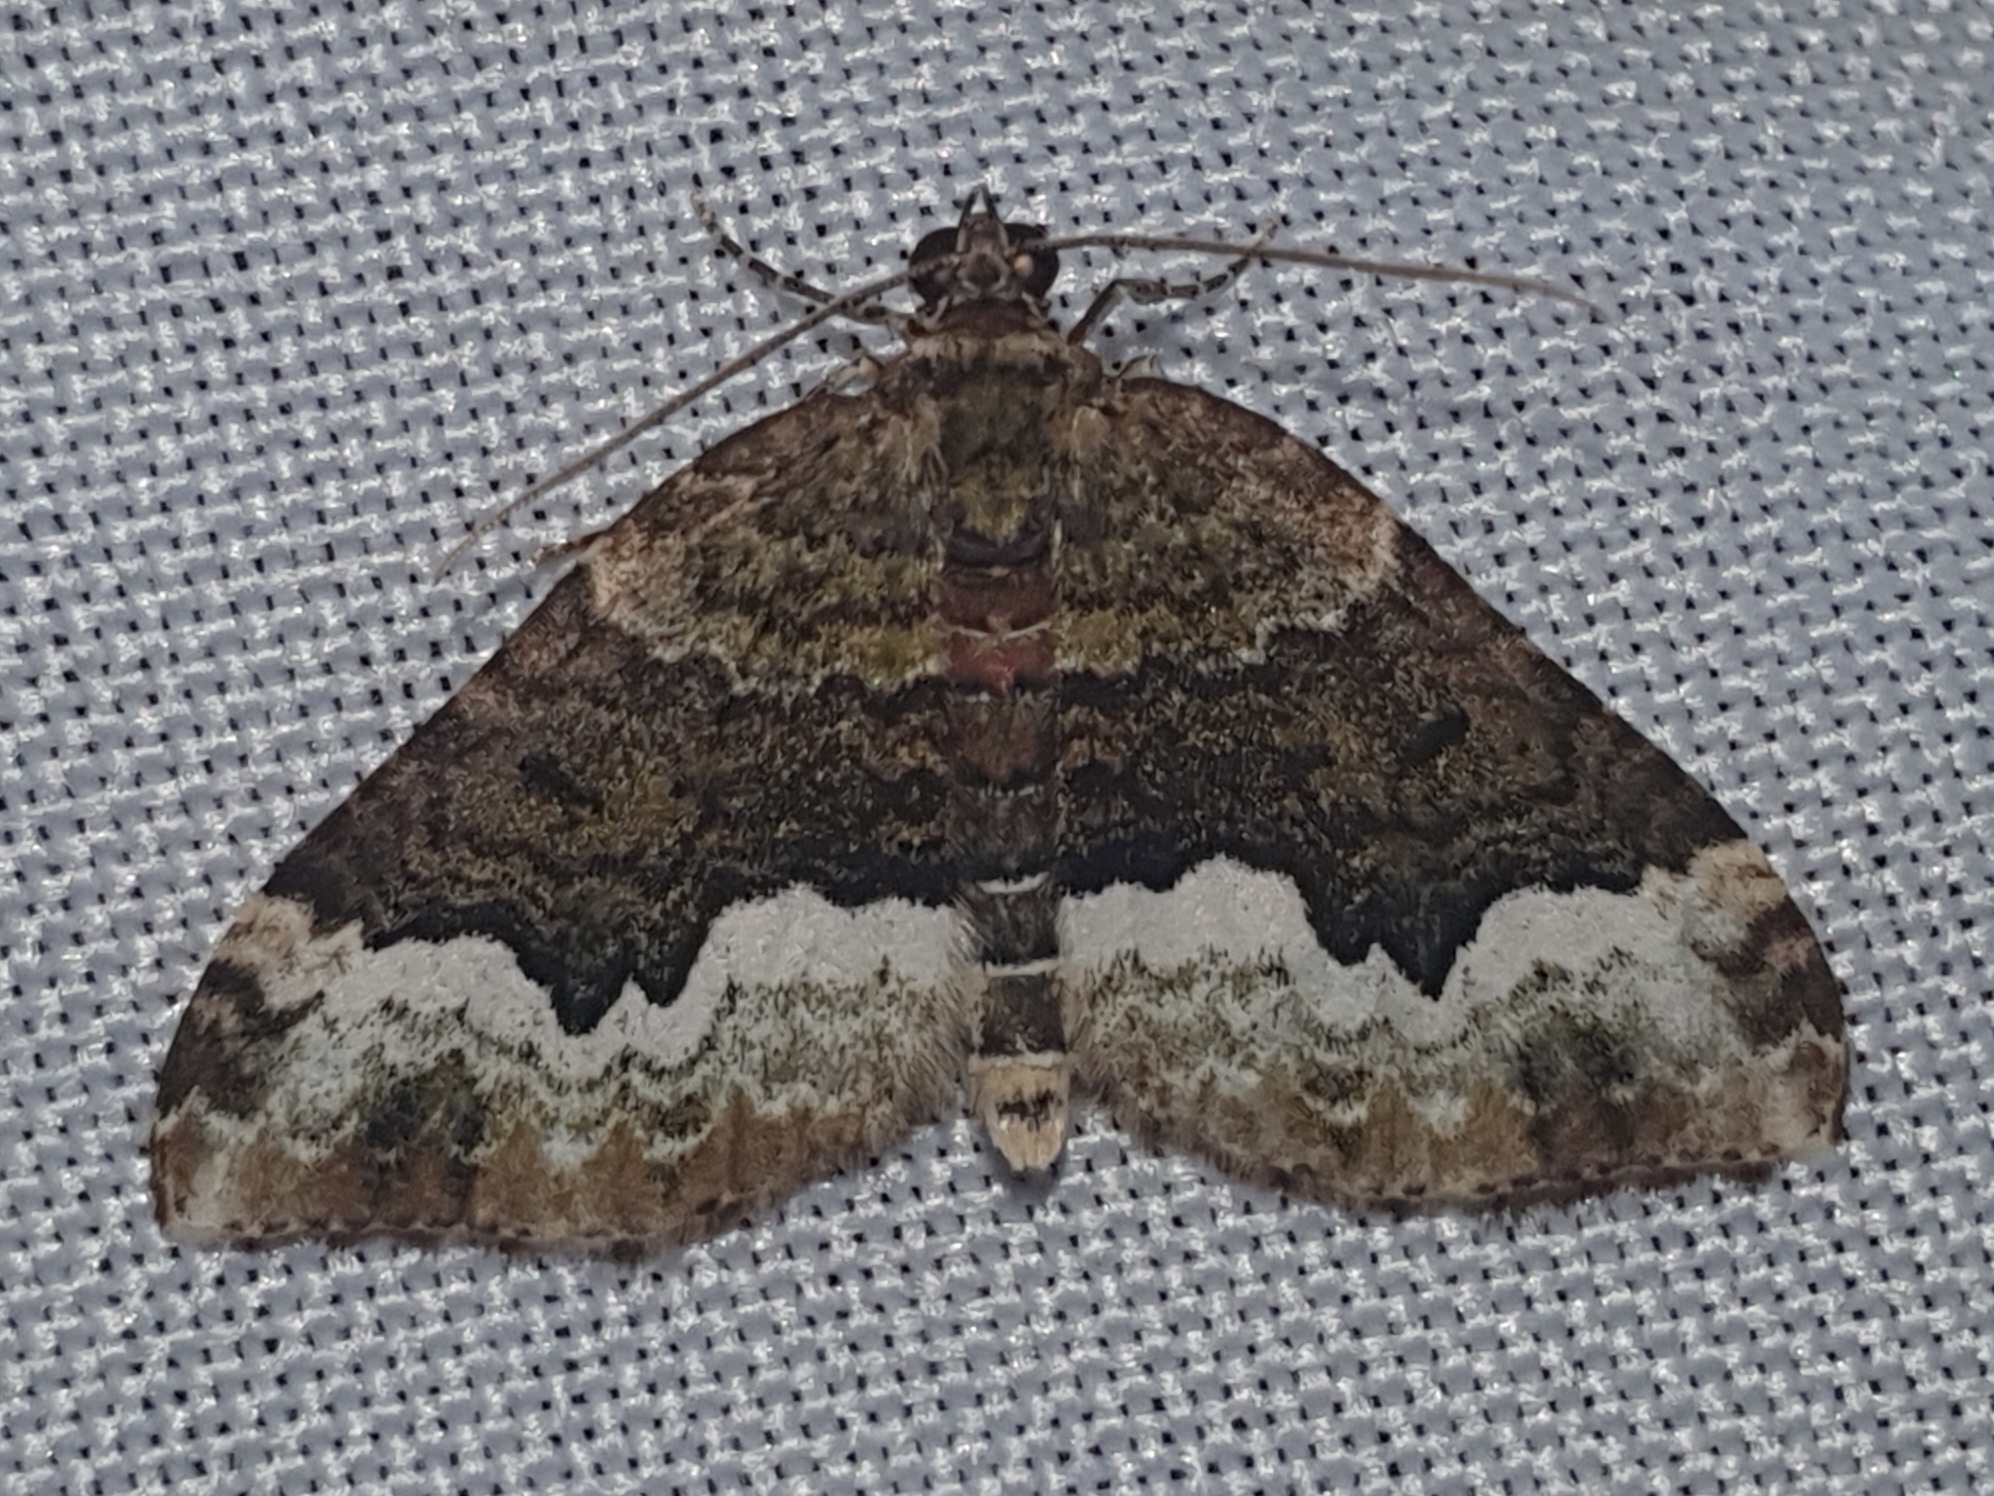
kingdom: Animalia
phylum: Arthropoda
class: Insecta
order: Lepidoptera
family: Geometridae
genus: Euphyia
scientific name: Euphyia biangulata
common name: Cloaked carpet
